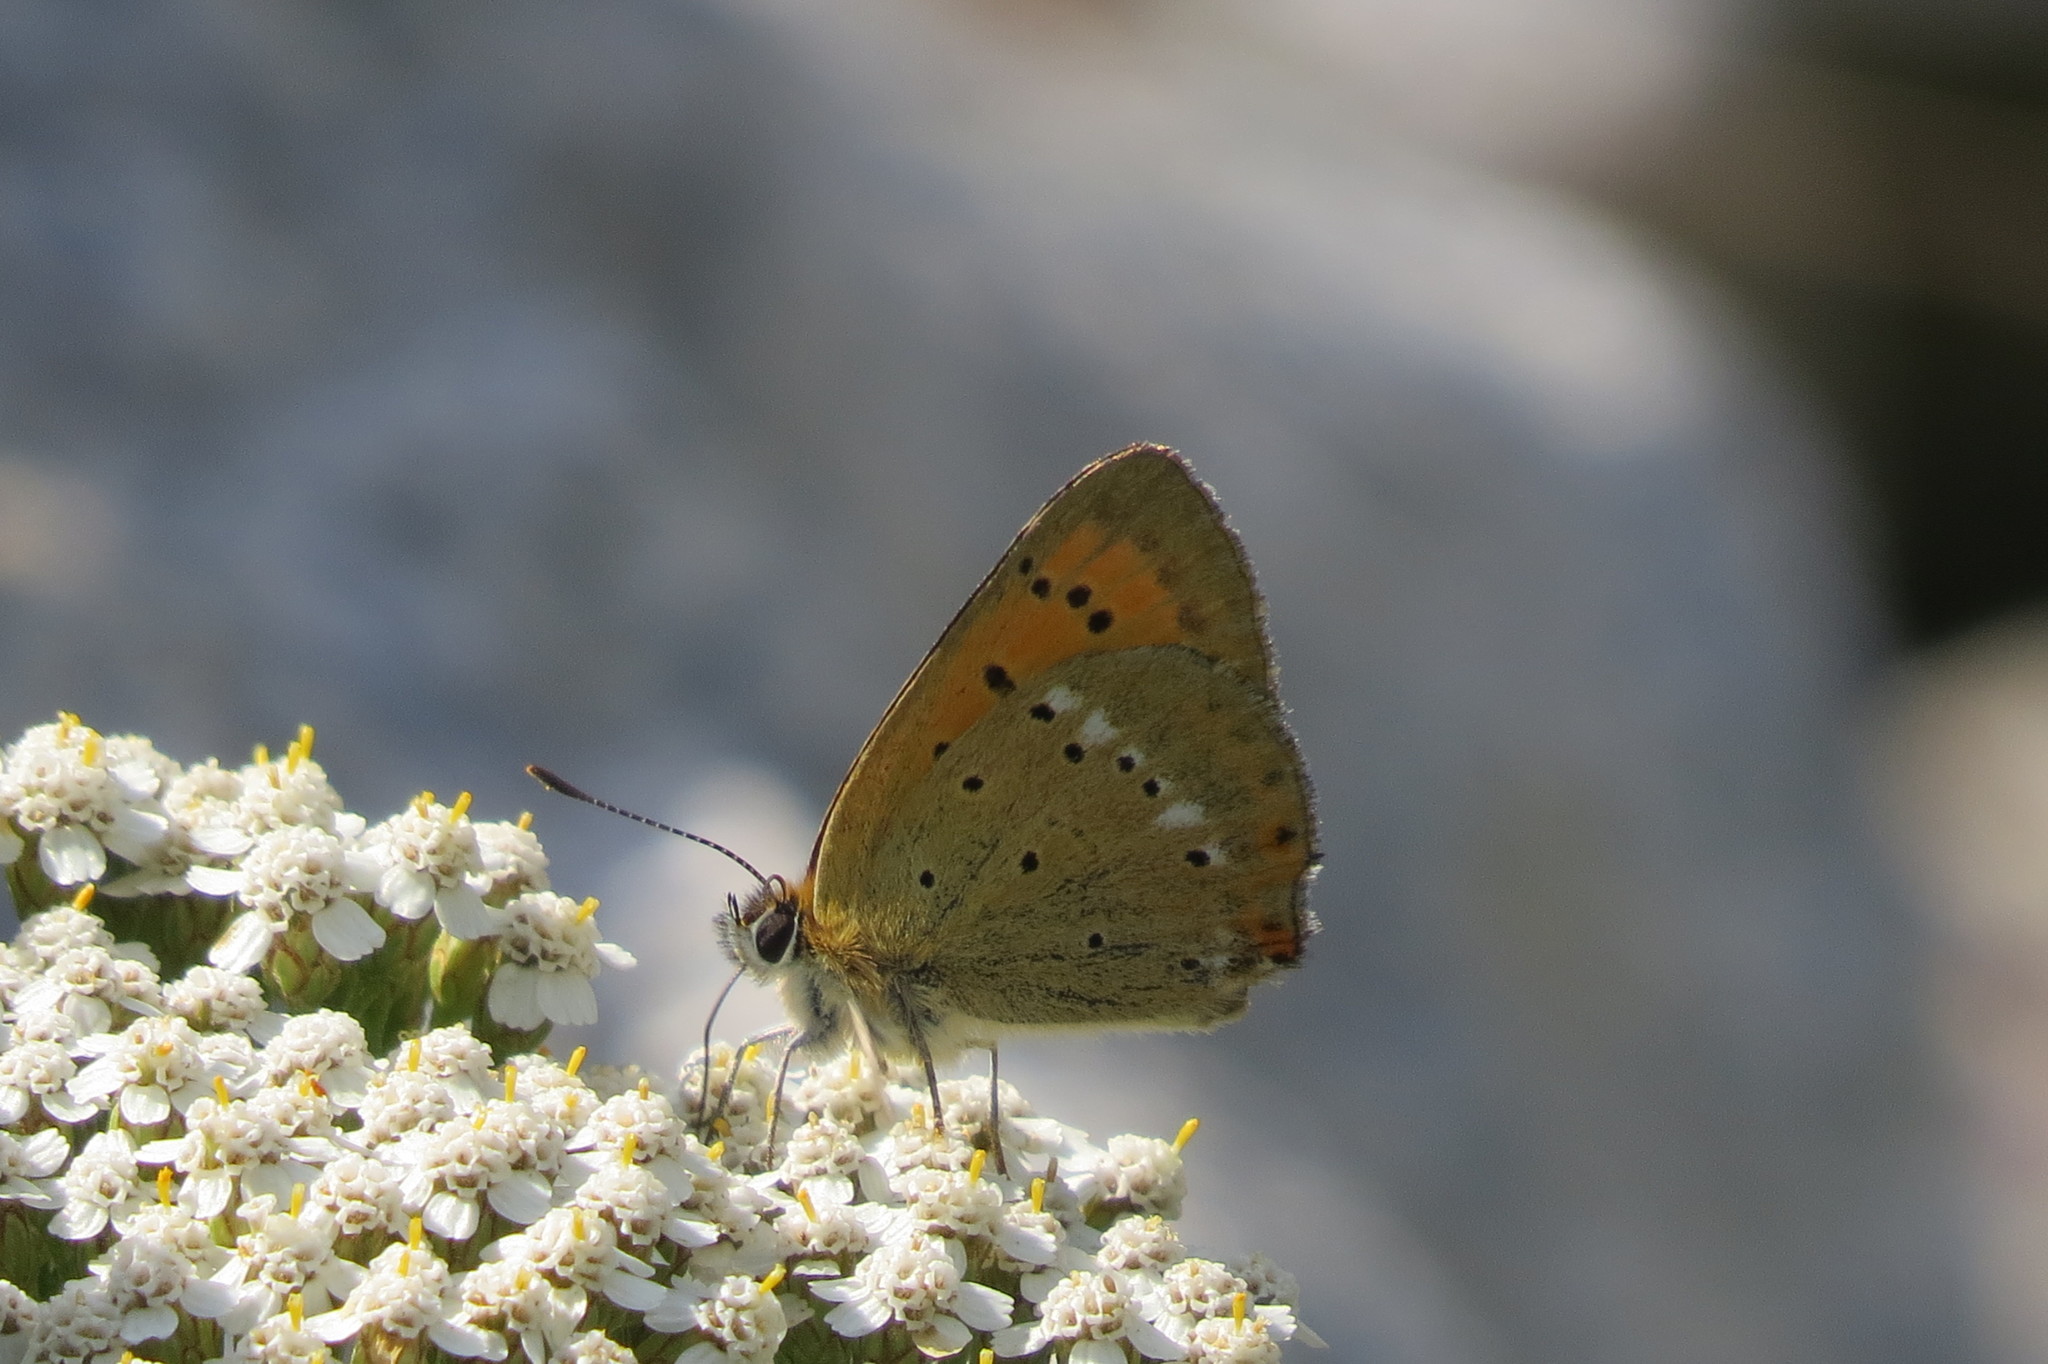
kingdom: Animalia
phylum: Arthropoda
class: Insecta
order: Lepidoptera
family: Lycaenidae
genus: Lycaena
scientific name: Lycaena virgaureae
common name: Scarce copper
